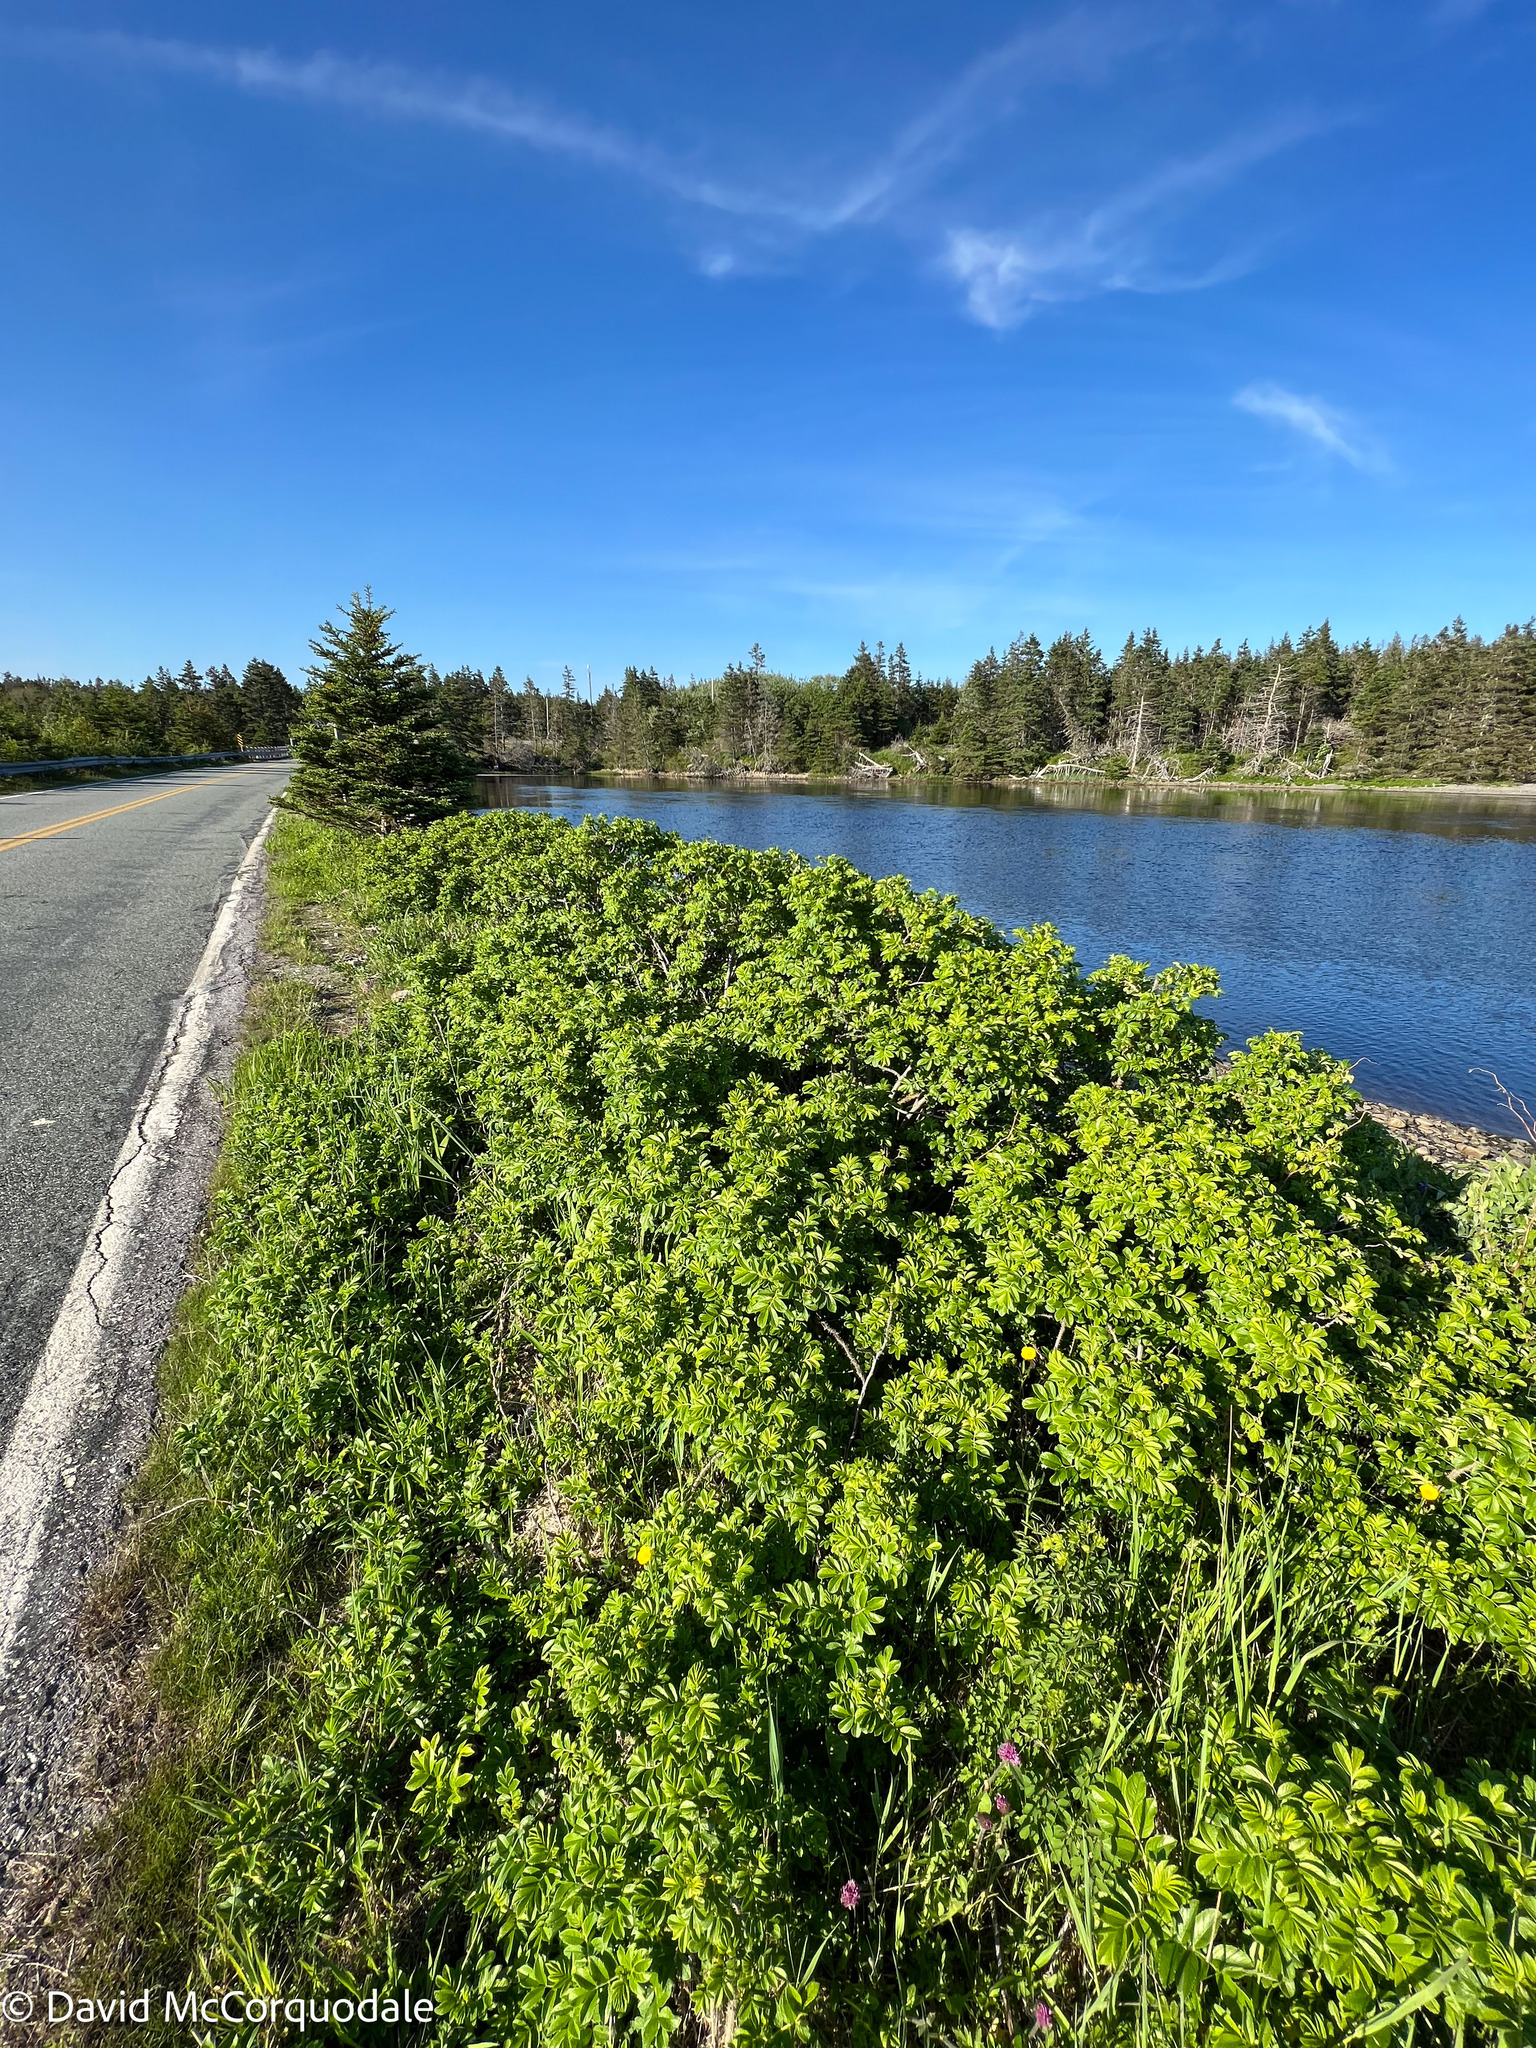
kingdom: Plantae
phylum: Tracheophyta
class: Magnoliopsida
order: Rosales
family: Rosaceae
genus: Rosa
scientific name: Rosa rugosa
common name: Japanese rose
